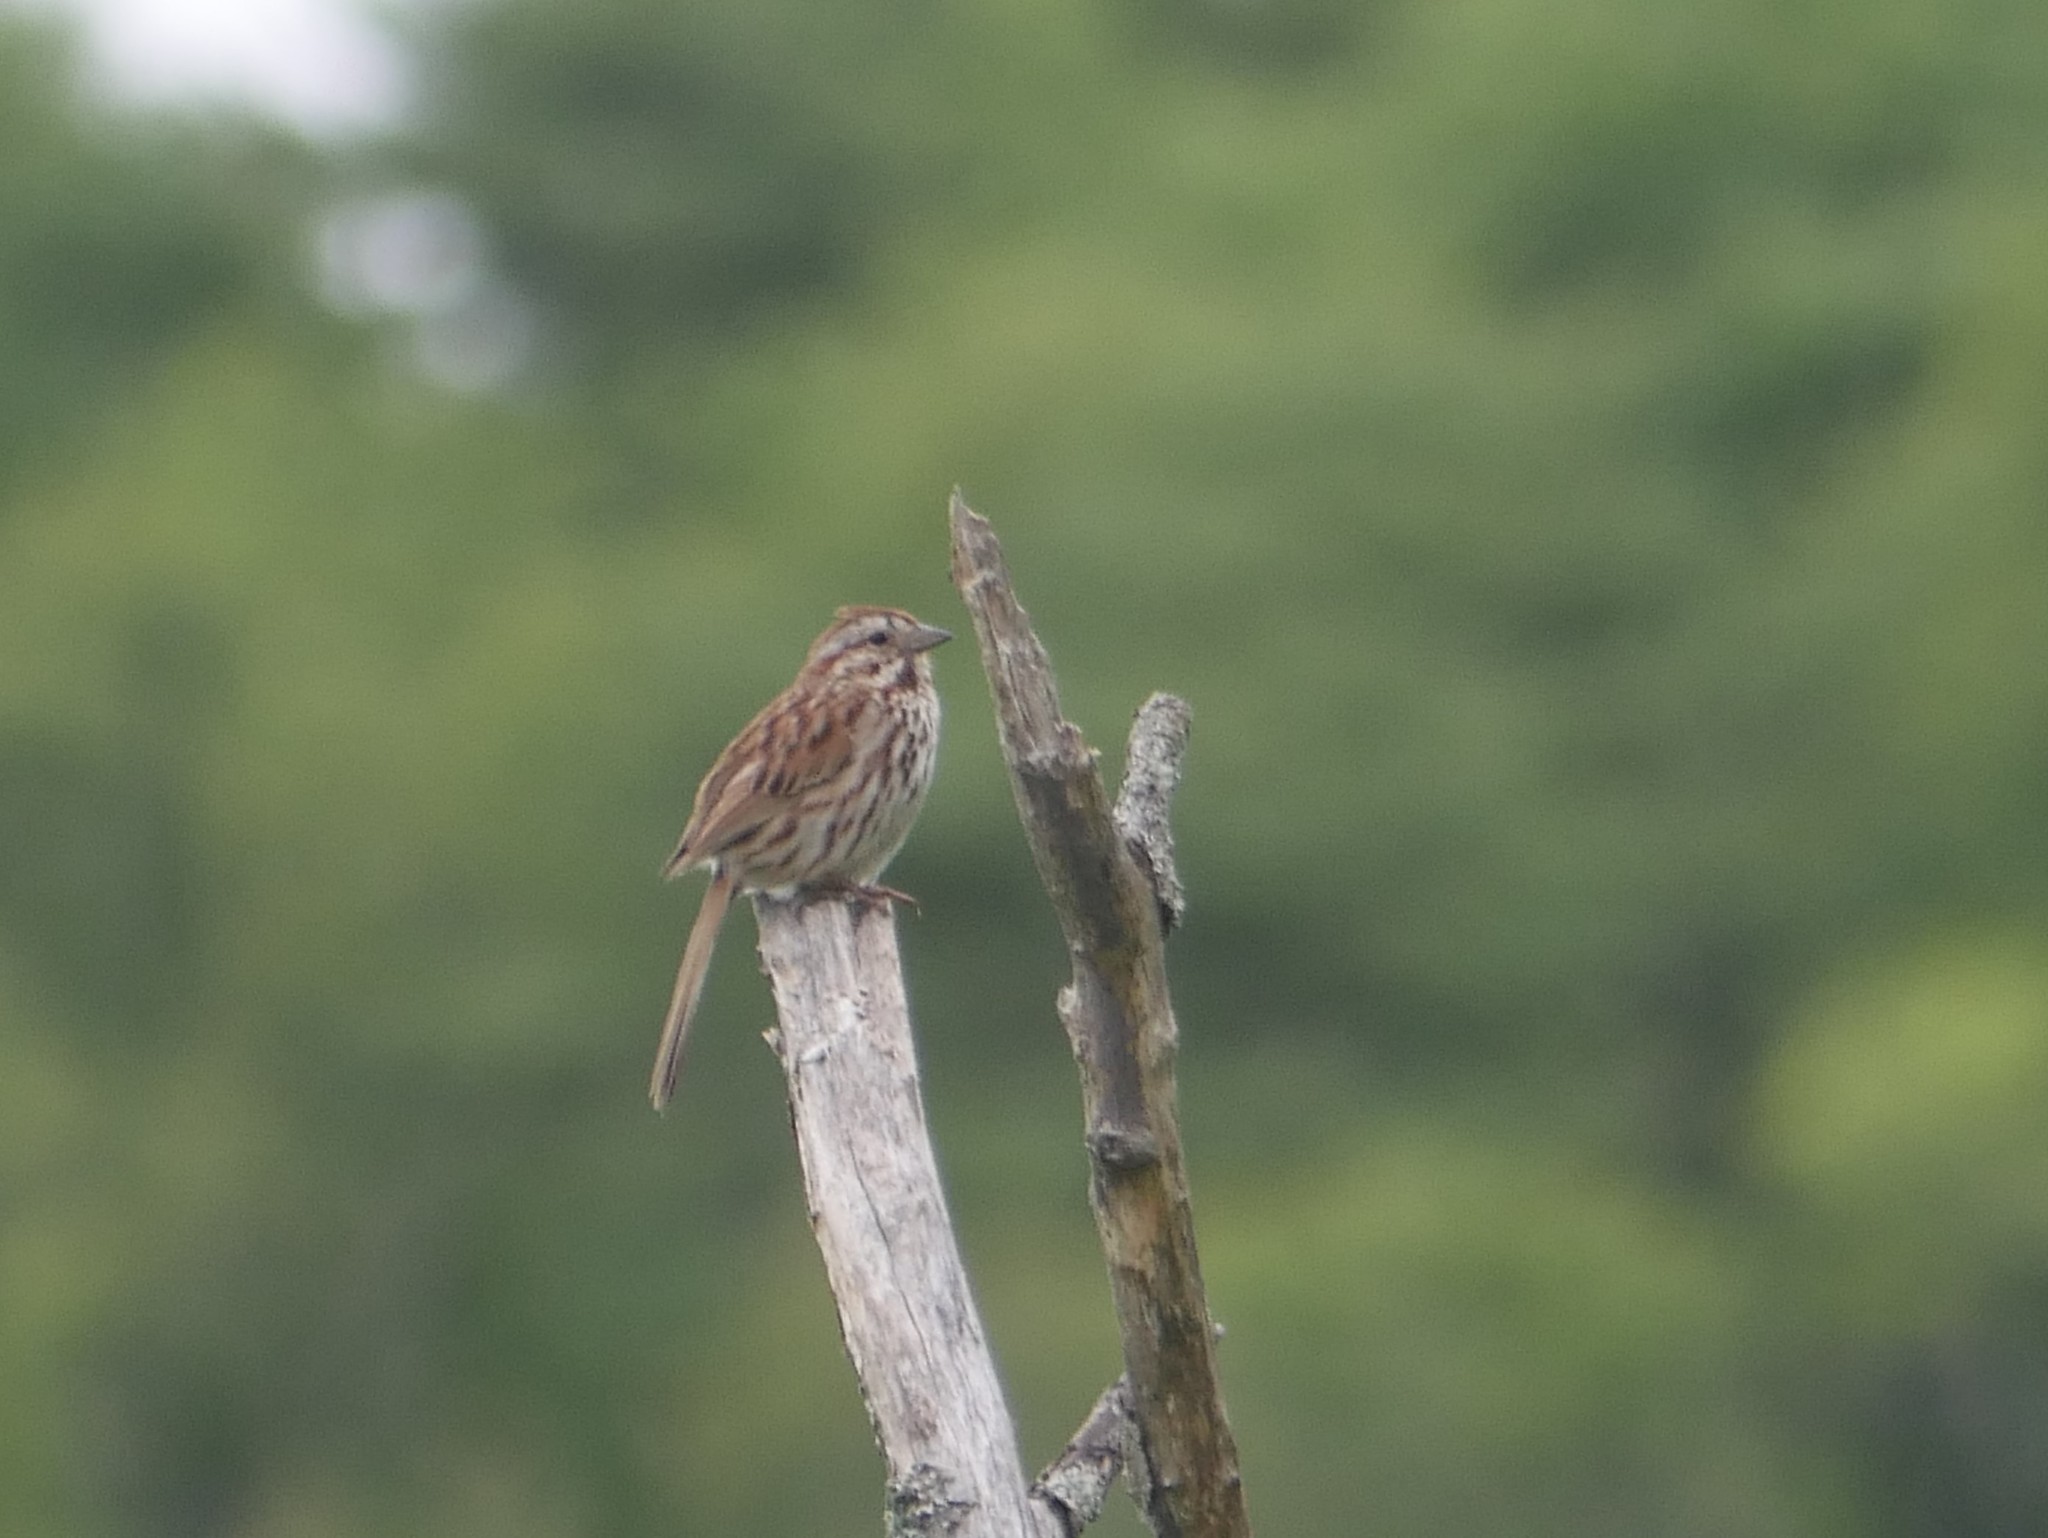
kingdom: Animalia
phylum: Chordata
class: Aves
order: Passeriformes
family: Passerellidae
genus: Melospiza
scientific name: Melospiza melodia
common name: Song sparrow
